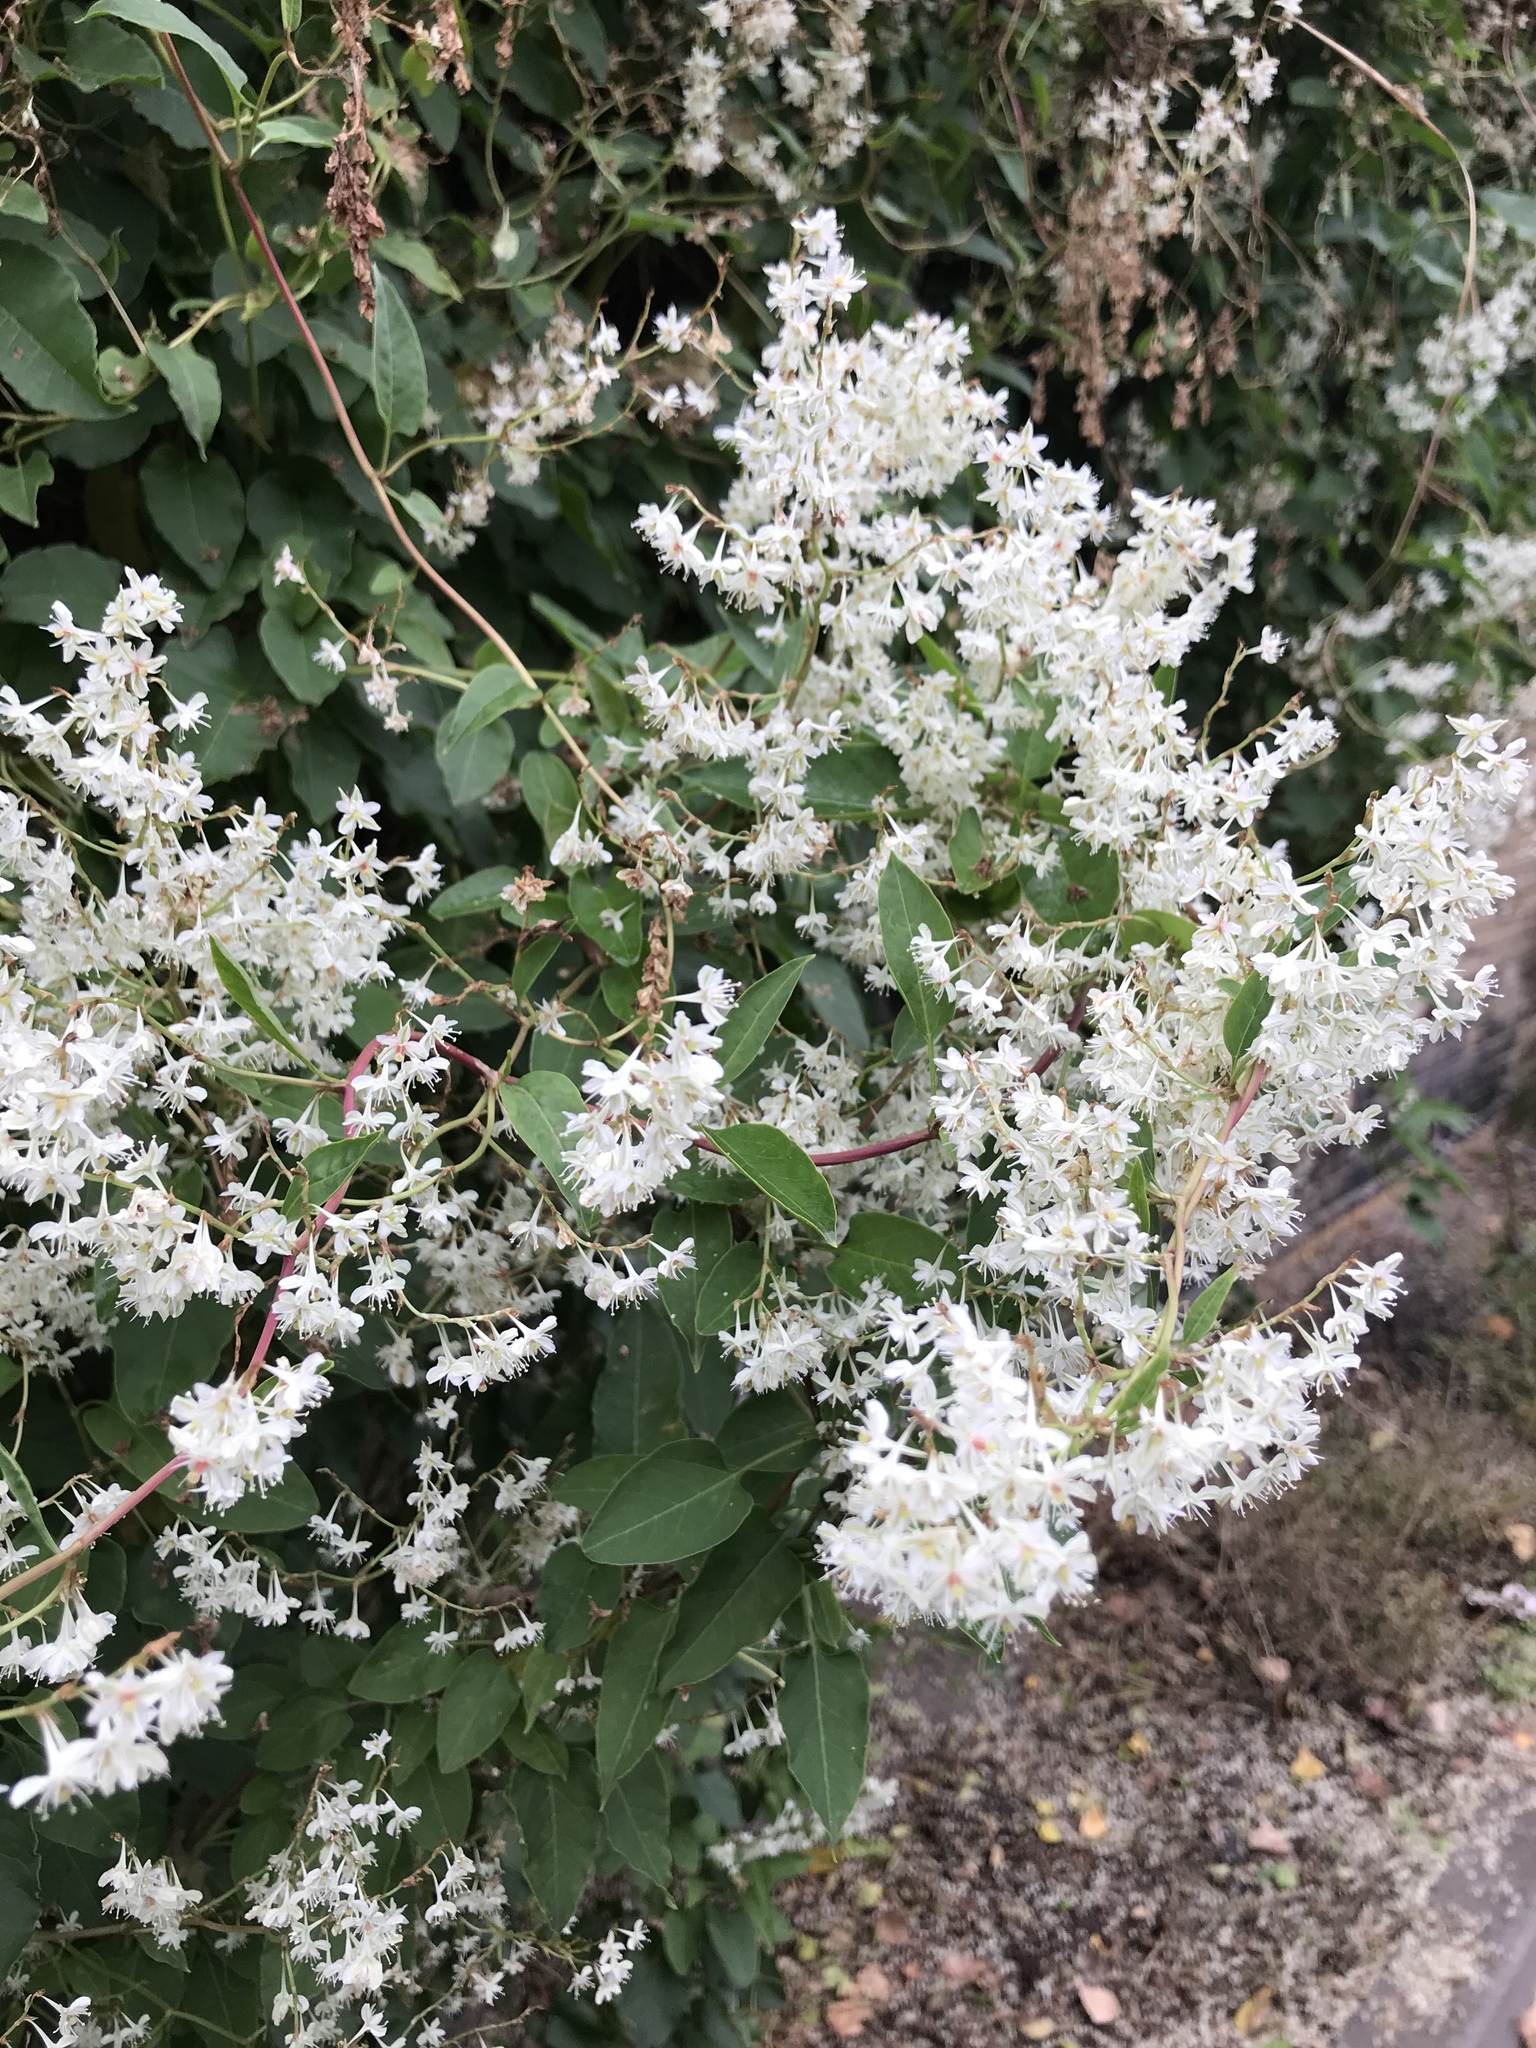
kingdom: Plantae
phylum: Tracheophyta
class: Magnoliopsida
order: Caryophyllales
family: Polygonaceae
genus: Fallopia
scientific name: Fallopia baldschuanica
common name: Russian-vine
